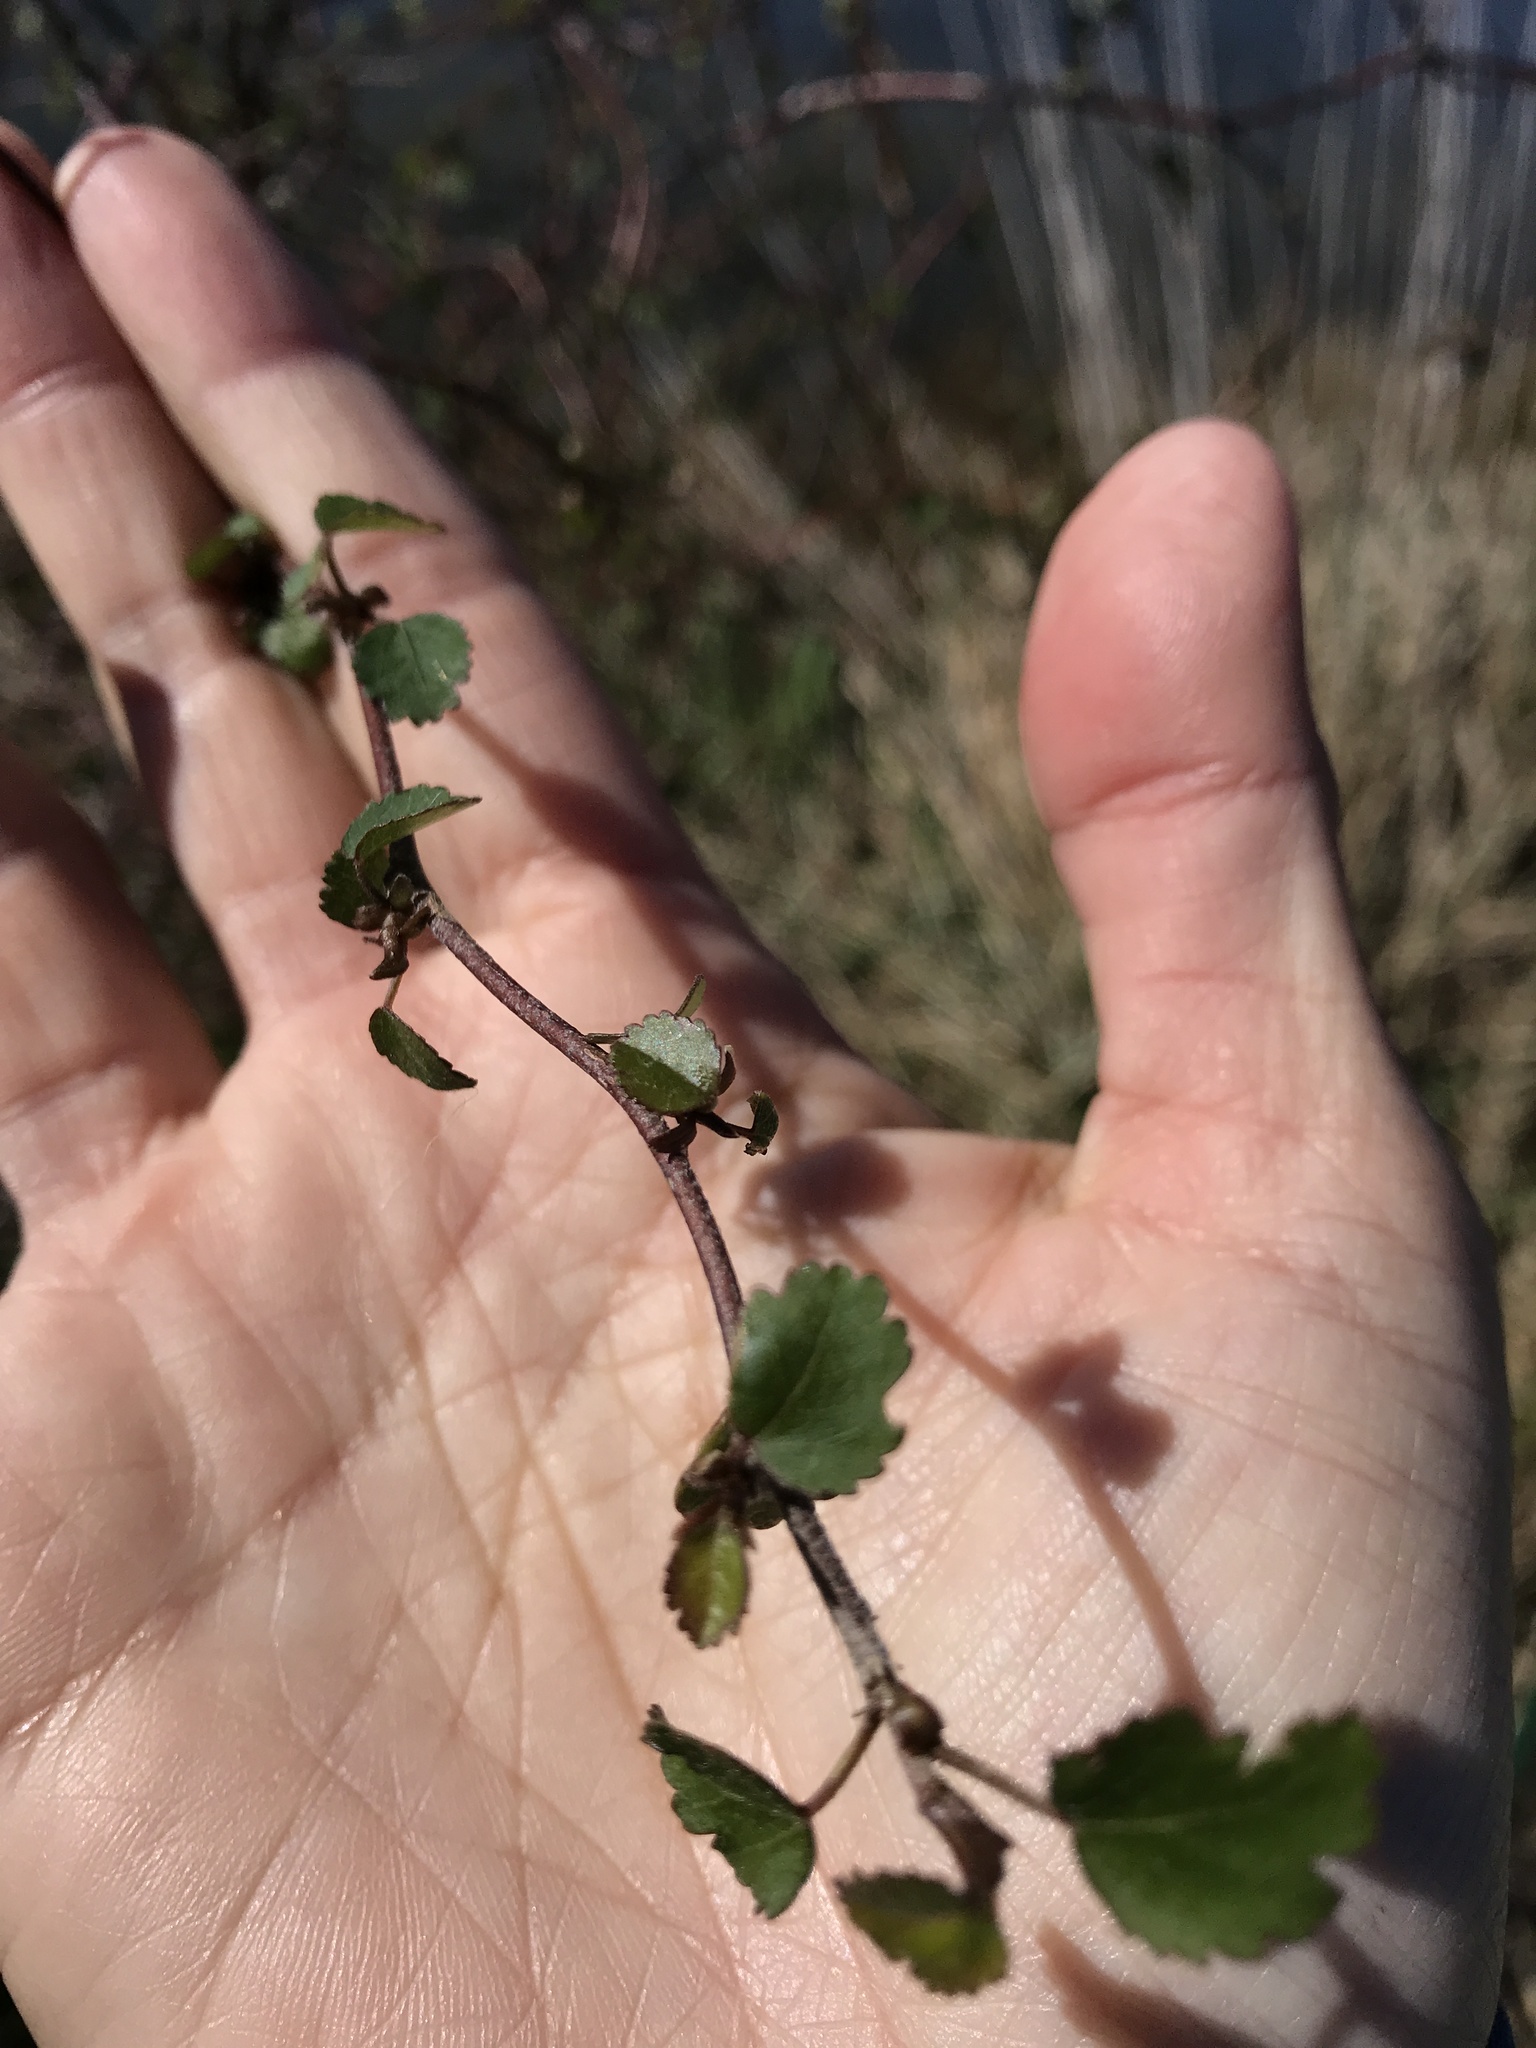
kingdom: Plantae
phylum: Tracheophyta
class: Magnoliopsida
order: Malvales
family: Malvaceae
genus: Plagianthus
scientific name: Plagianthus regius
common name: Manatu
